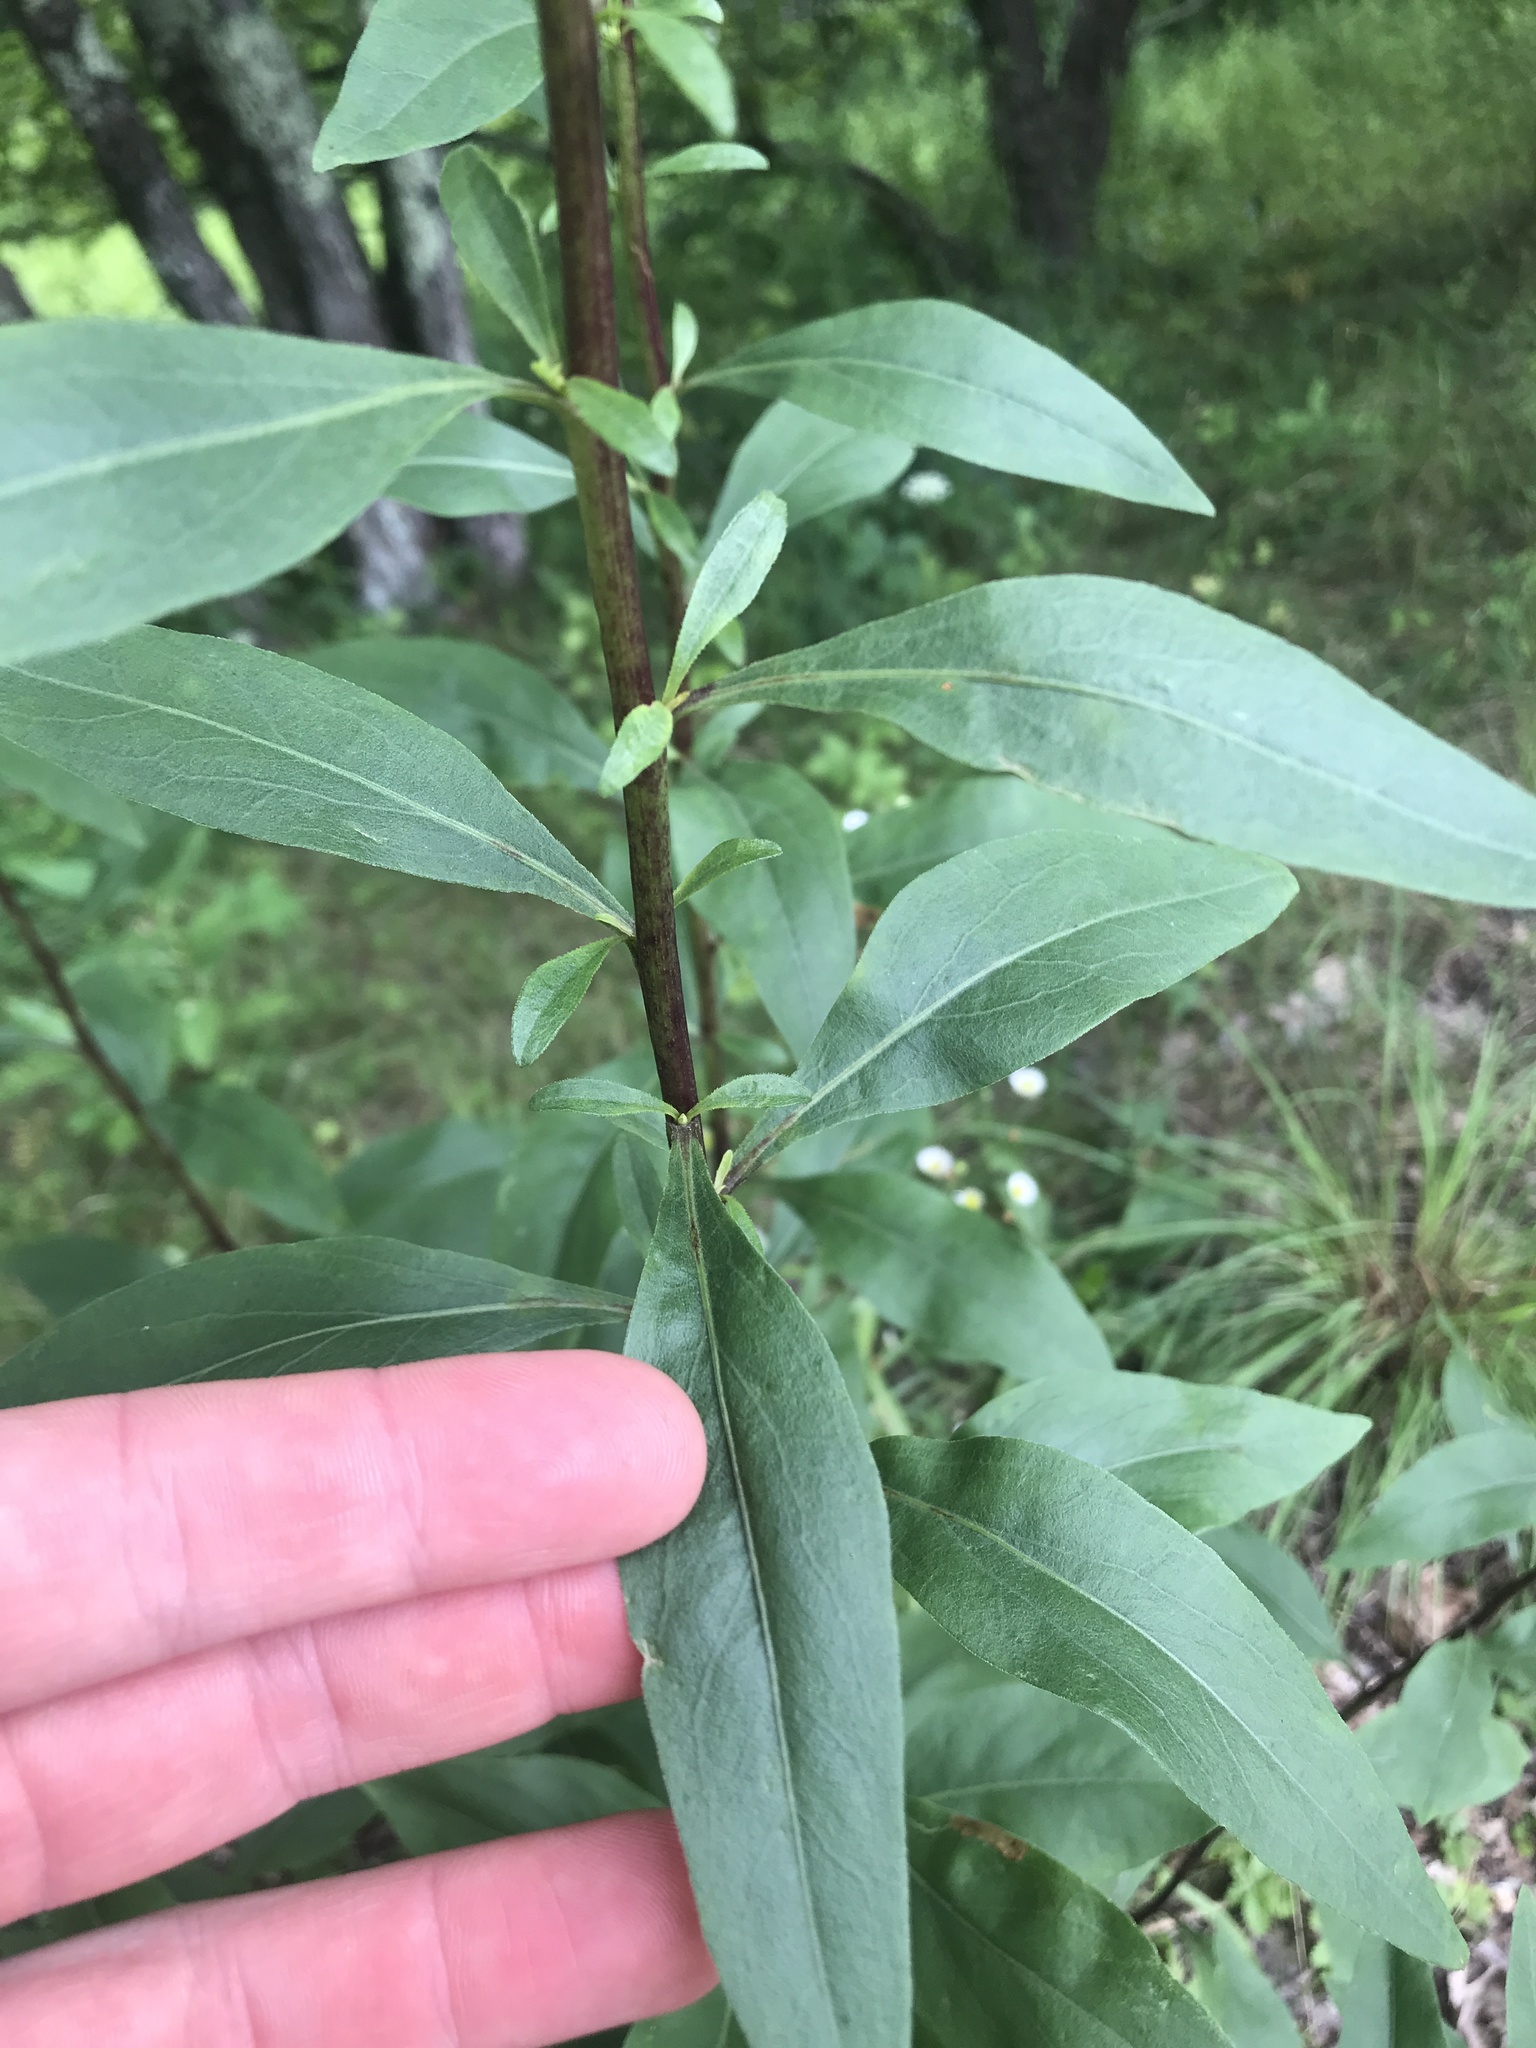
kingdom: Plantae
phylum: Tracheophyta
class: Magnoliopsida
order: Asterales
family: Asteraceae
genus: Solidago
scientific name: Solidago speciosa
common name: Showy goldenrod
